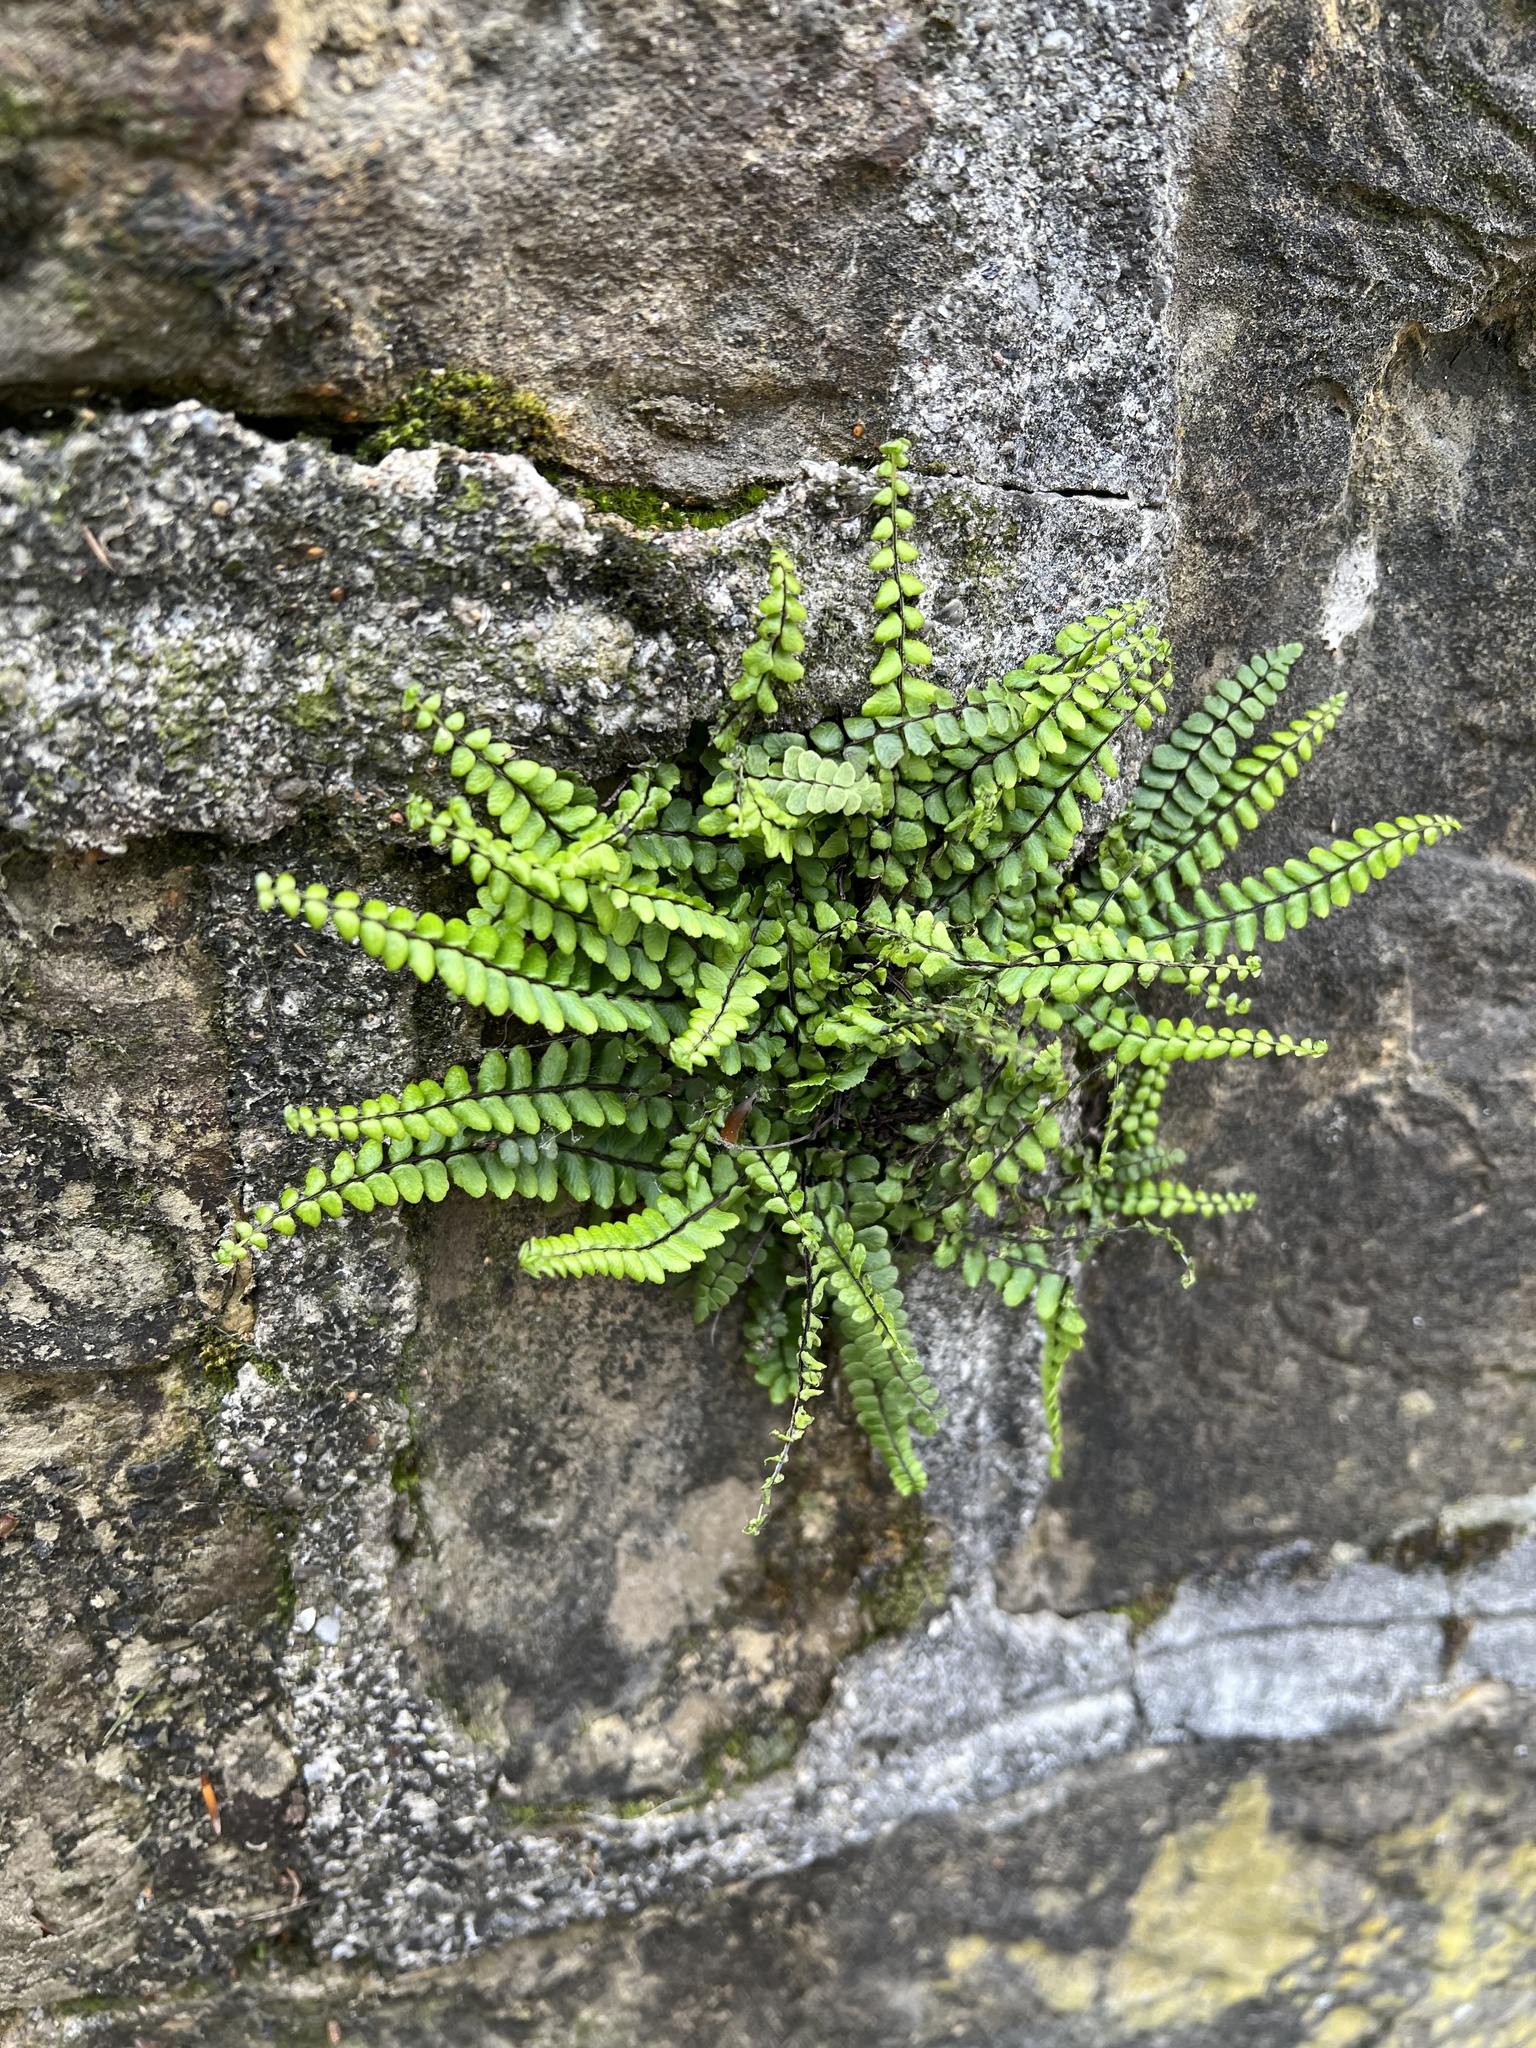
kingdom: Plantae
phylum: Tracheophyta
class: Polypodiopsida
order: Polypodiales
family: Aspleniaceae
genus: Asplenium
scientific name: Asplenium trichomanes
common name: Maidenhair spleenwort
